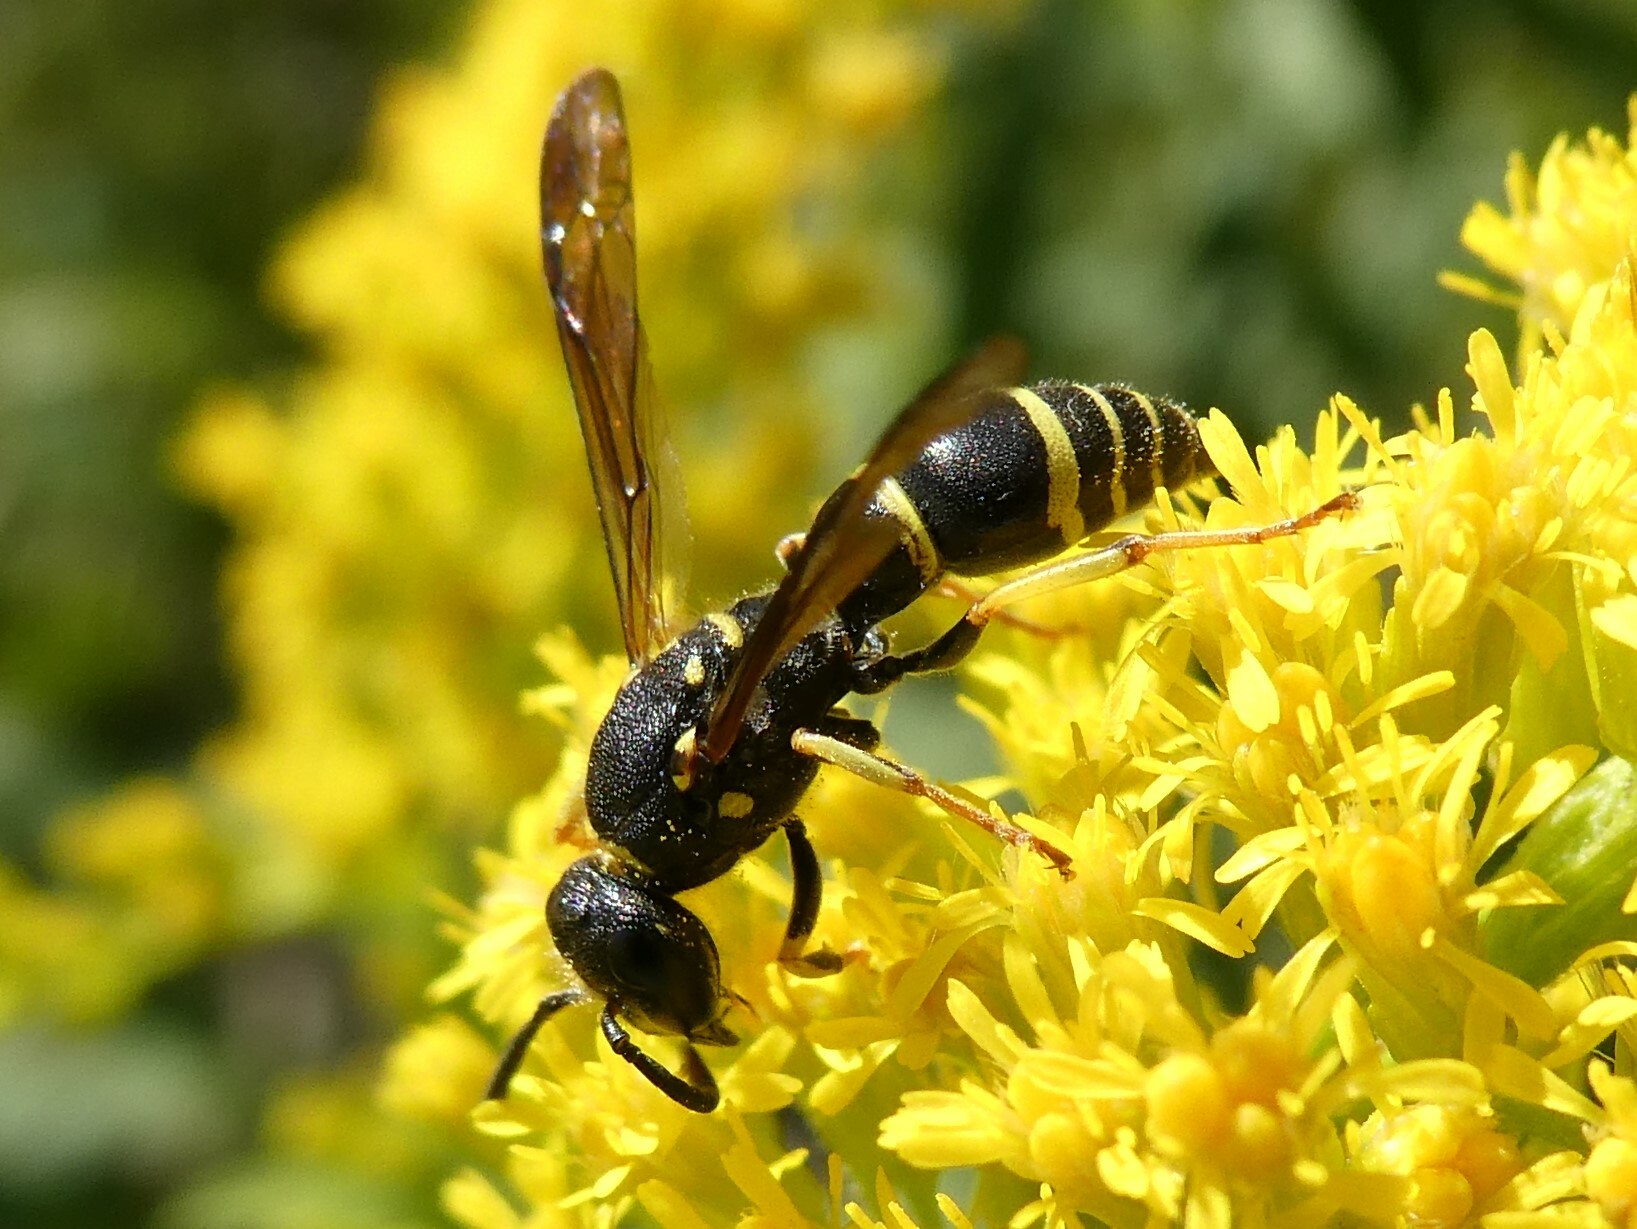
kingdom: Animalia
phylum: Arthropoda
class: Insecta
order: Hymenoptera
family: Vespidae
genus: Ancistrocerus
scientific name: Ancistrocerus adiabatus
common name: Bramble mason wasp
